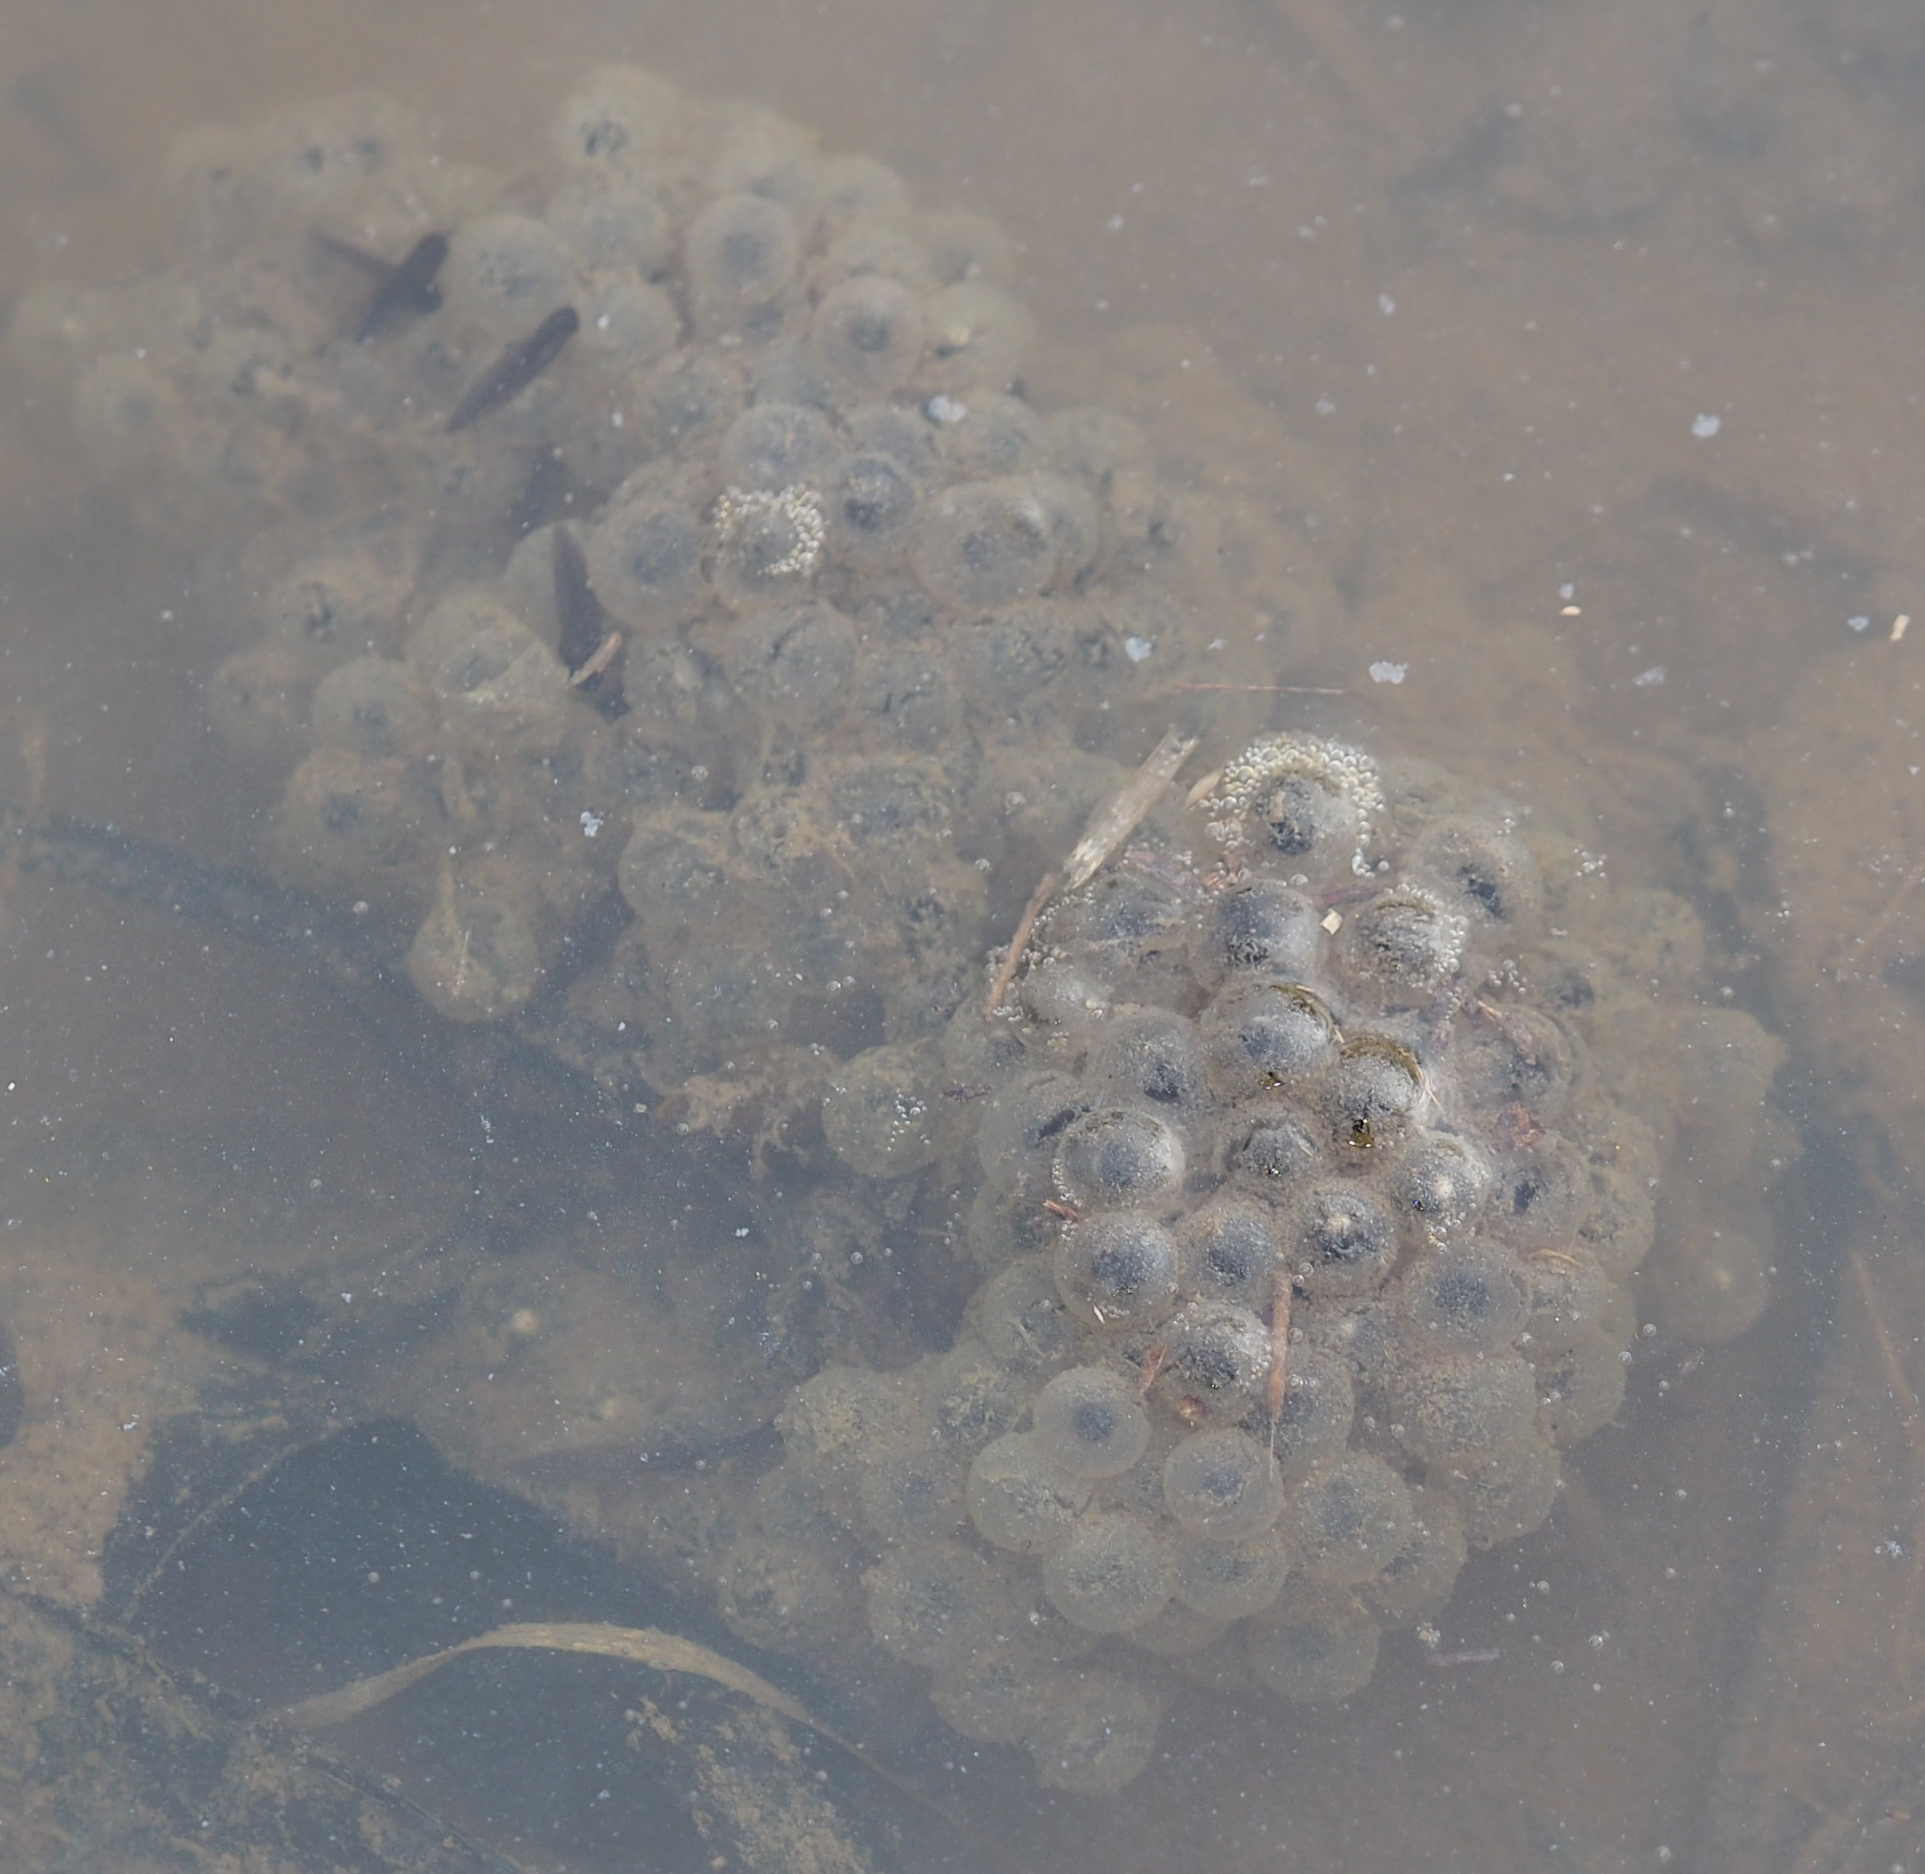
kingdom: Animalia
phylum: Chordata
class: Amphibia
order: Anura
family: Ranidae
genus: Lithobates
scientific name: Lithobates sylvaticus
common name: Wood frog
